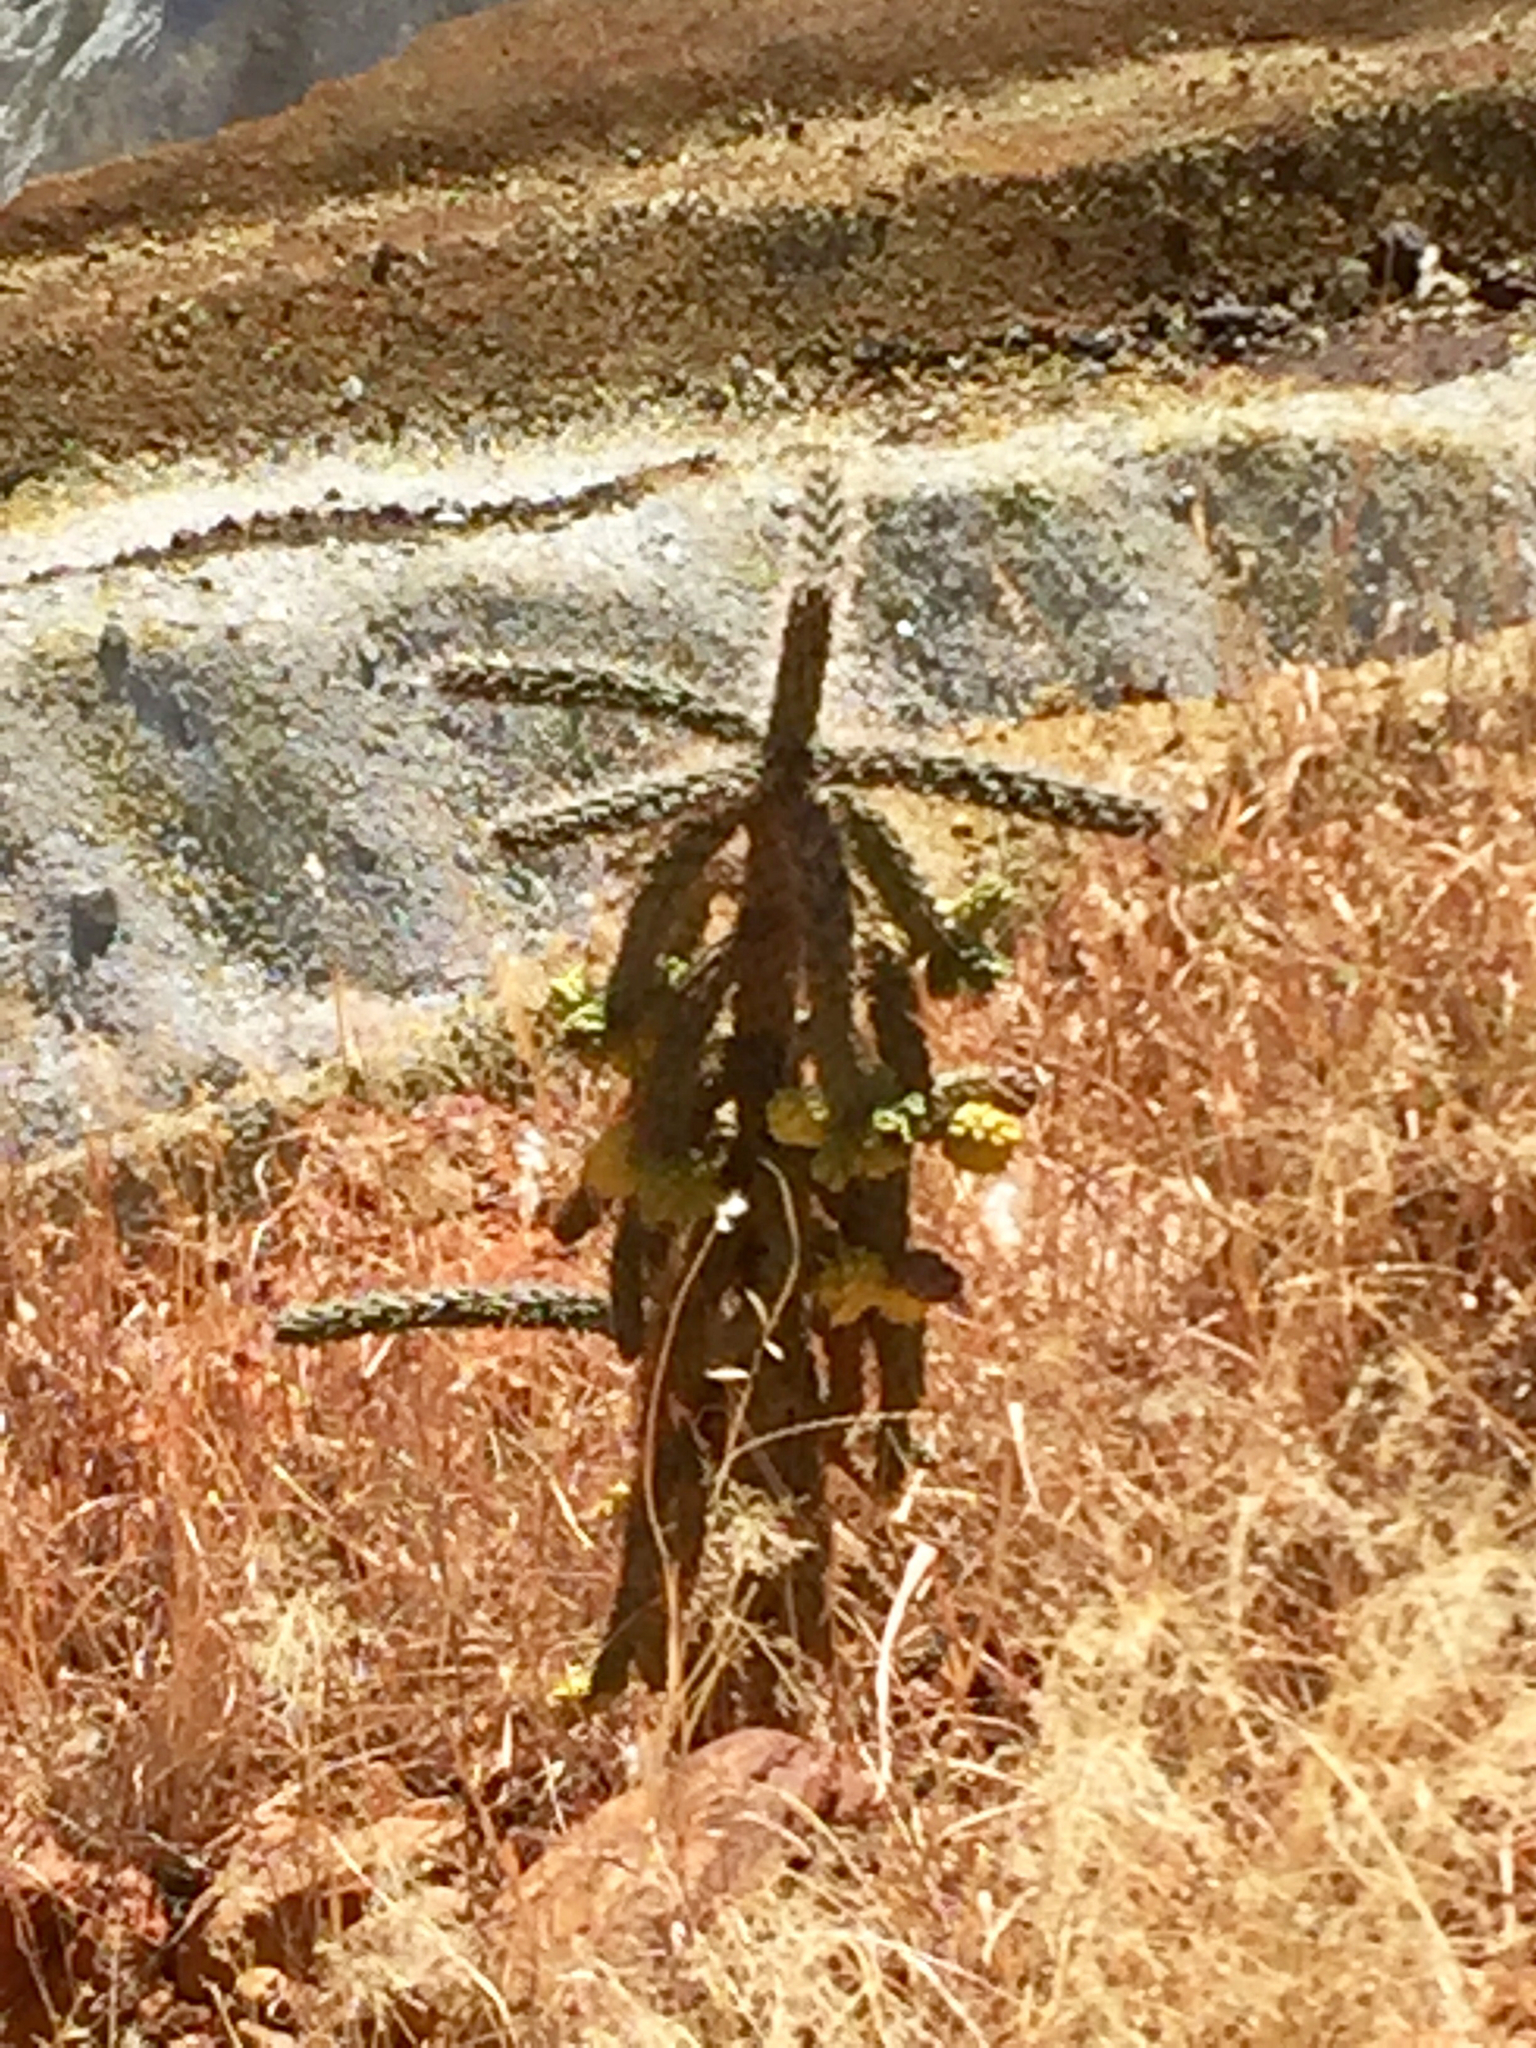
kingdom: Plantae
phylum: Tracheophyta
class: Magnoliopsida
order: Caryophyllales
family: Cactaceae
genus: Cylindropuntia
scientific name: Cylindropuntia imbricata
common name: Candelabrum cactus
